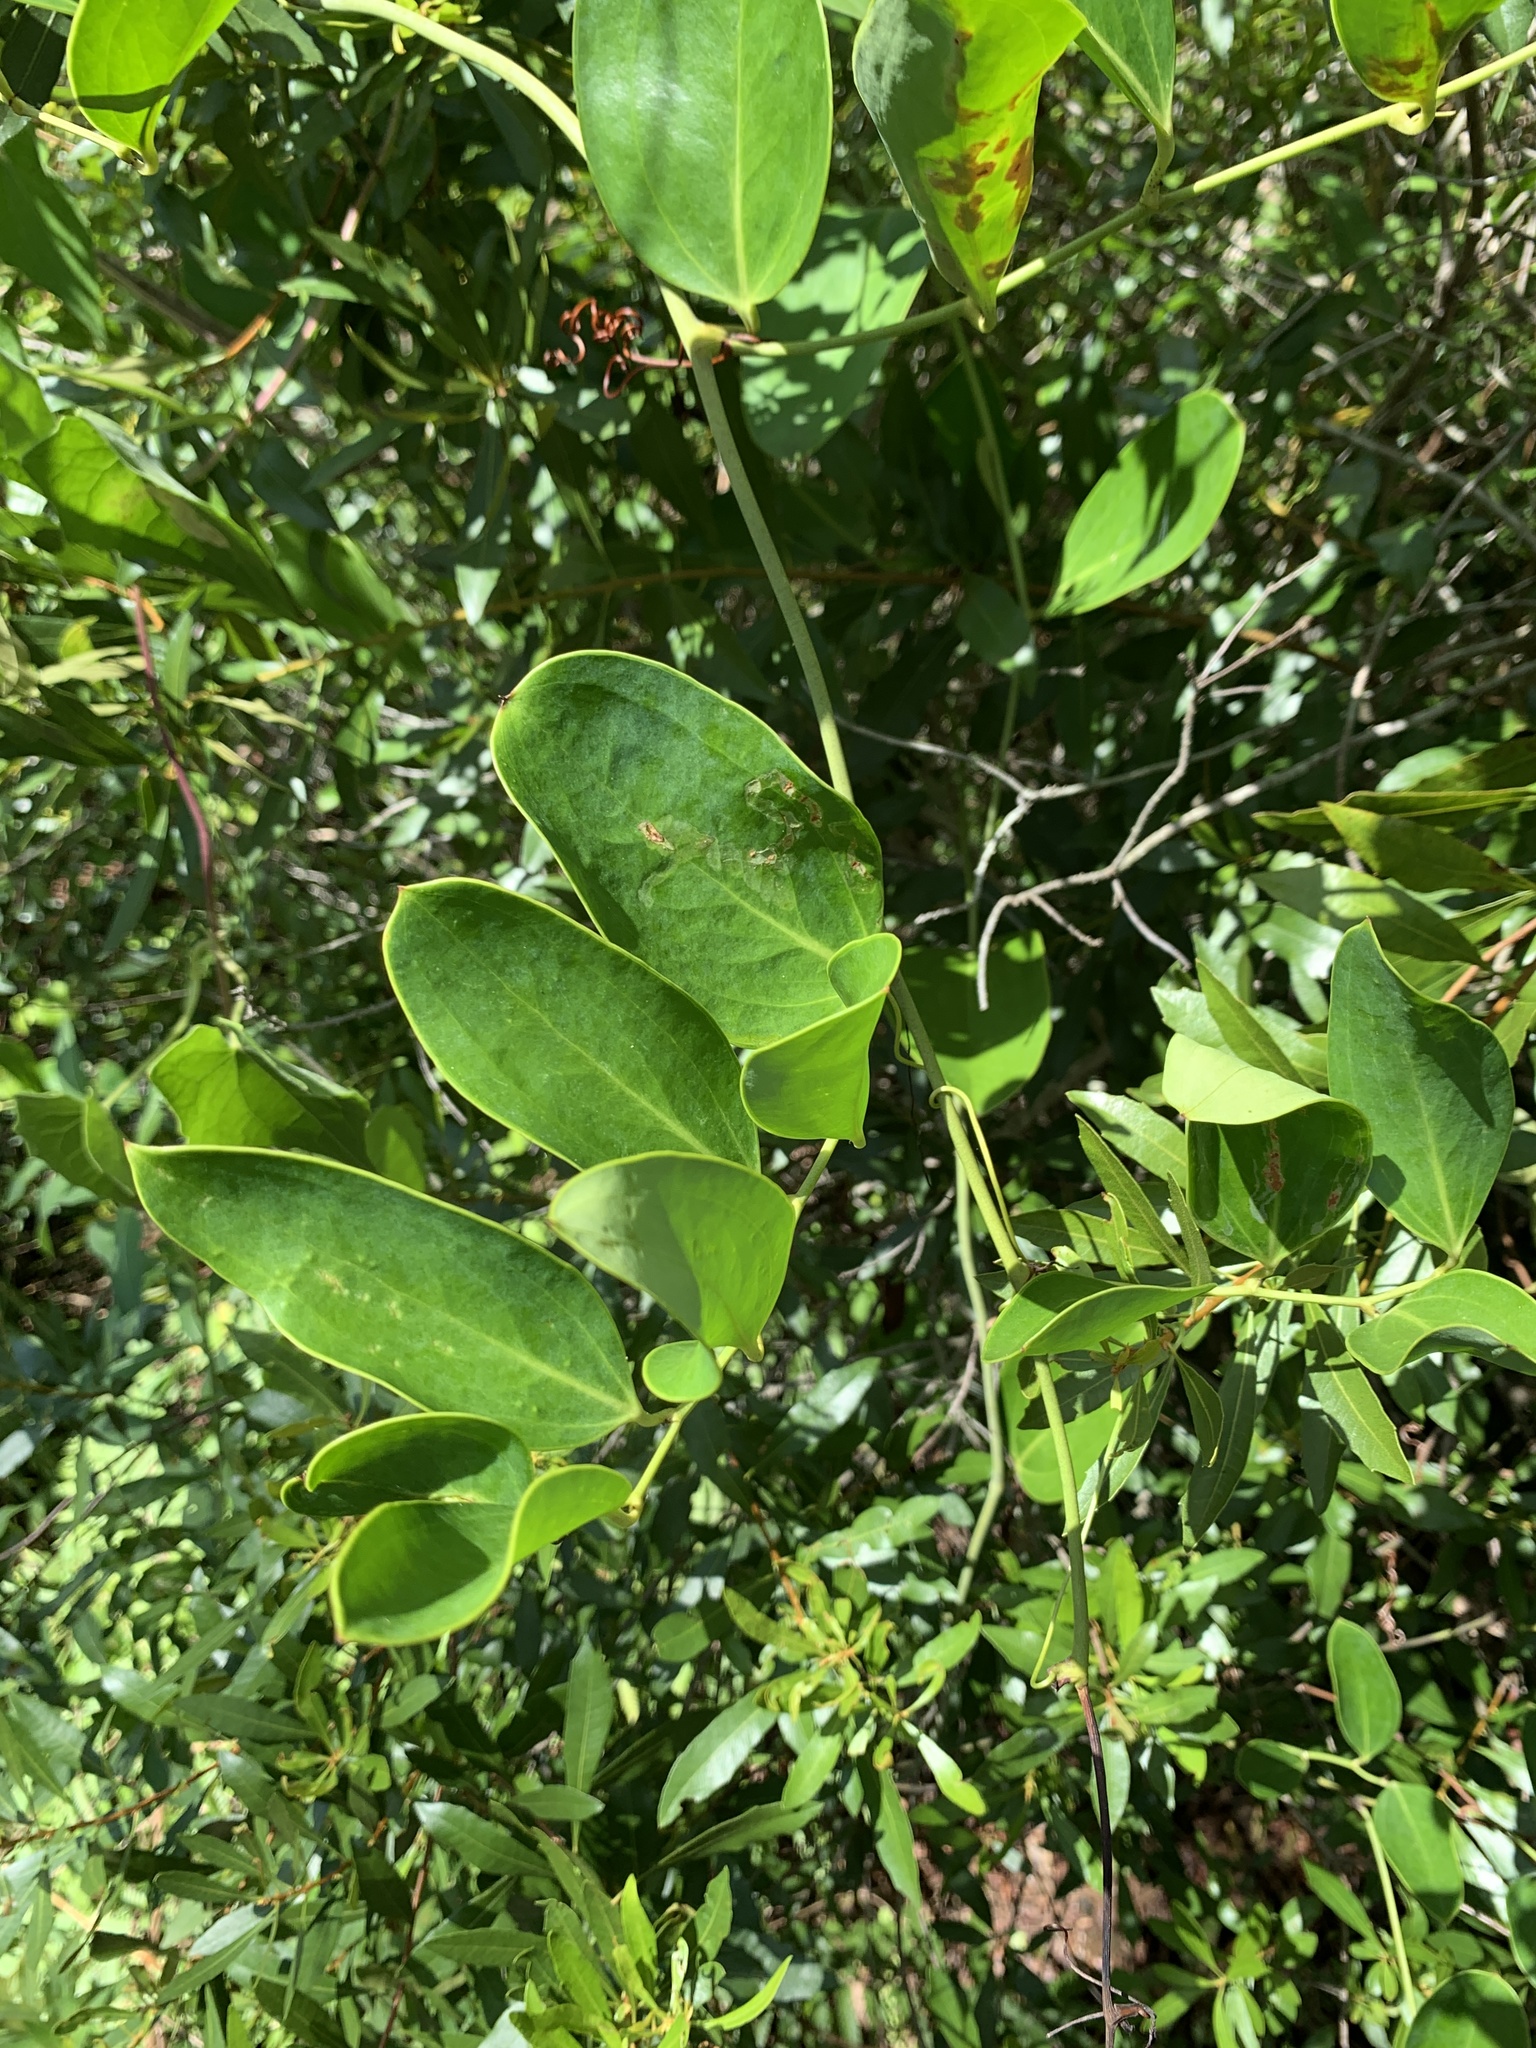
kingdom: Plantae
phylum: Tracheophyta
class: Liliopsida
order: Liliales
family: Smilacaceae
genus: Smilax
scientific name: Smilax laurifolia
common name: Bamboovine
